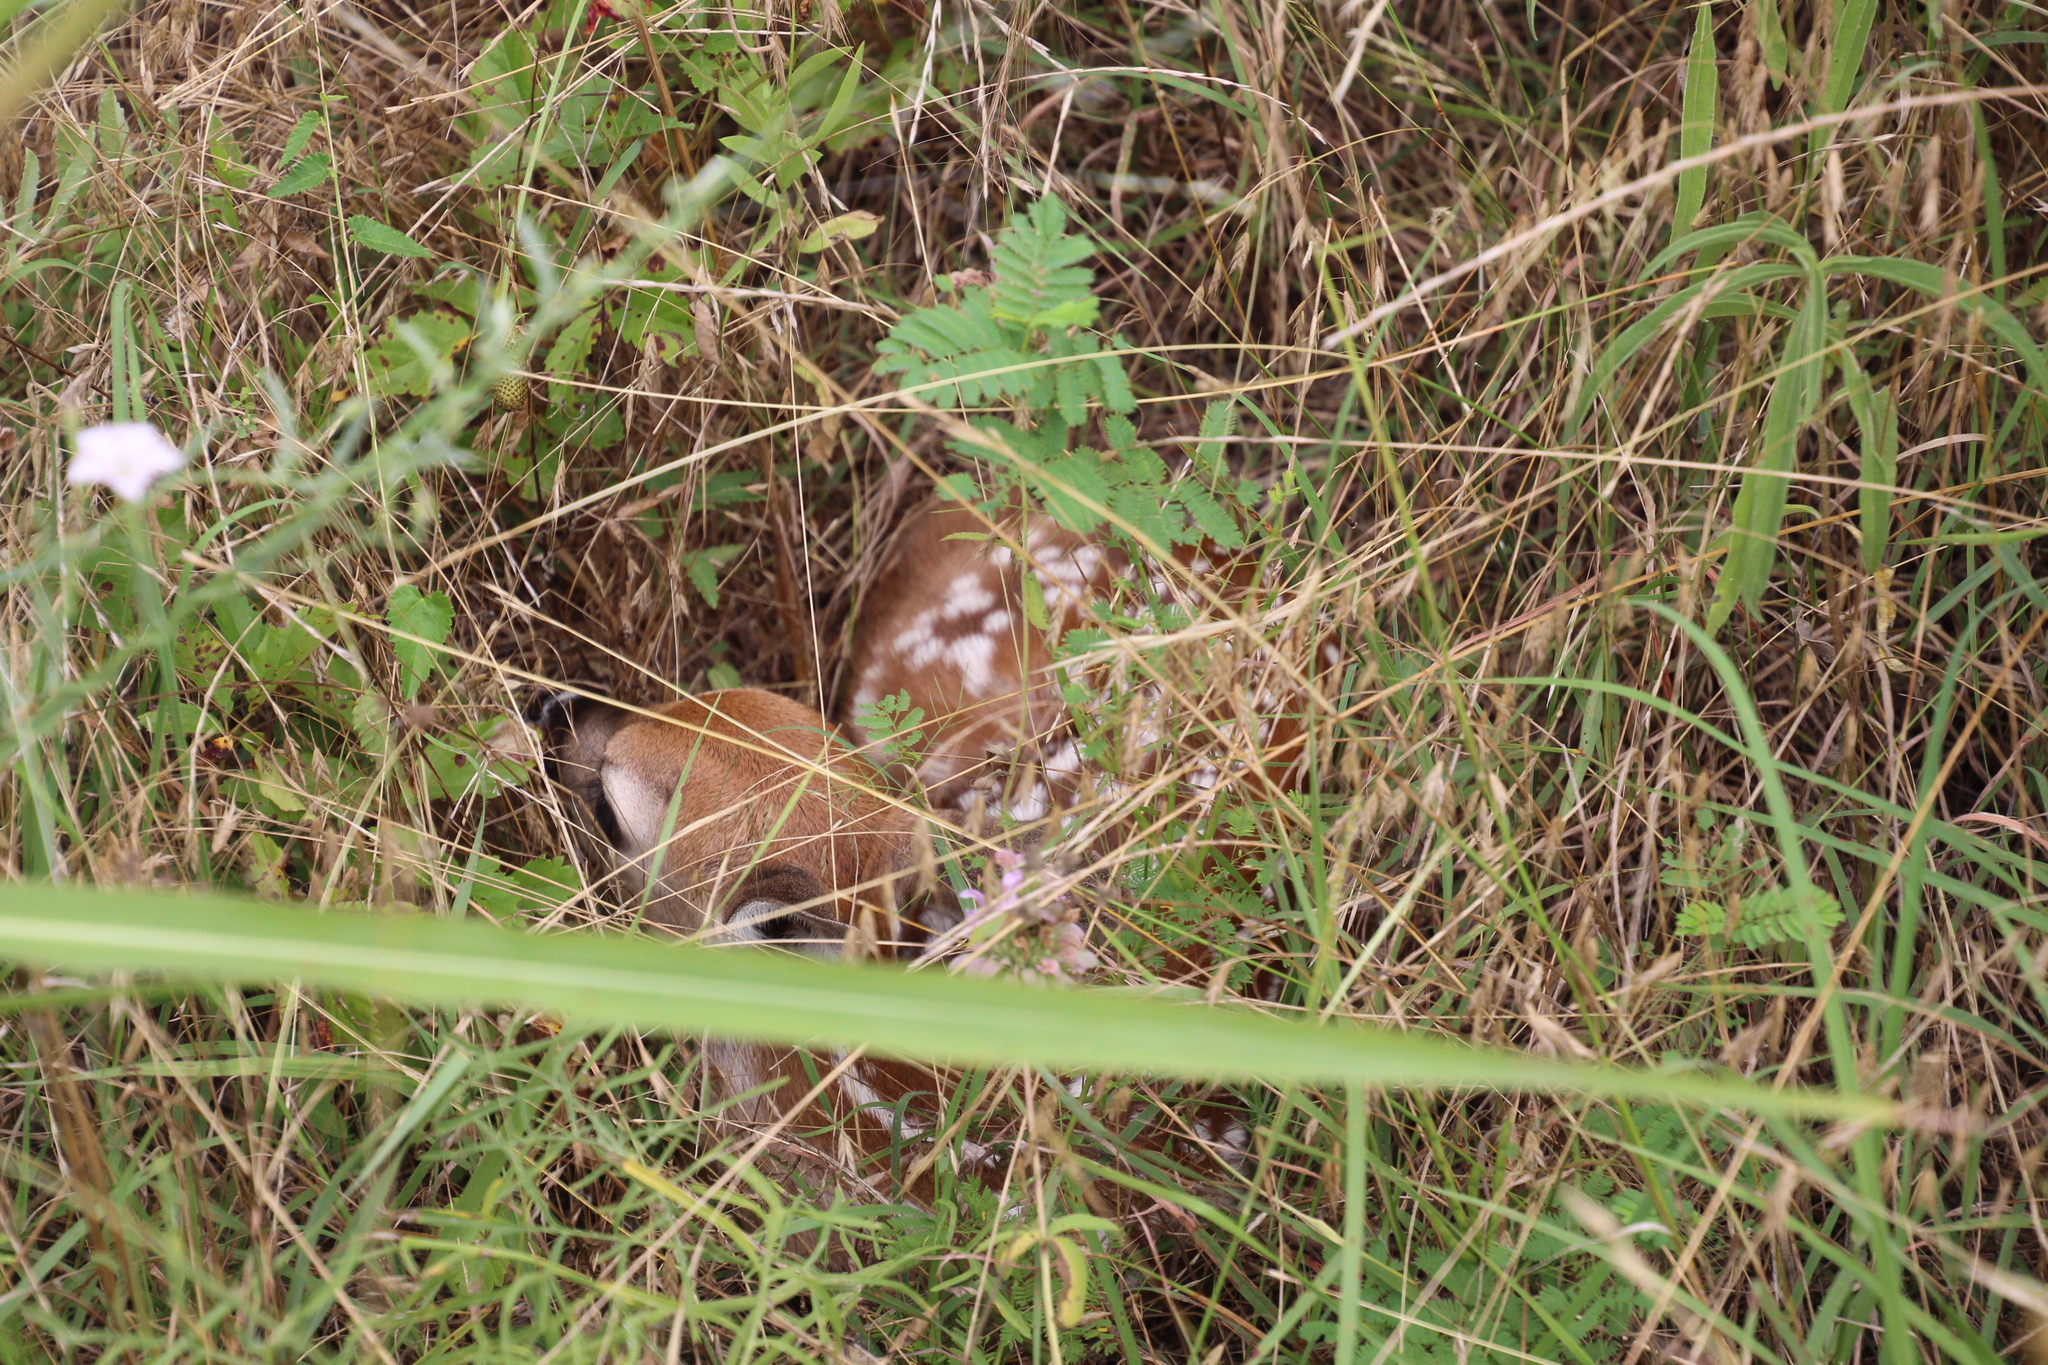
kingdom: Animalia
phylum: Chordata
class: Mammalia
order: Artiodactyla
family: Cervidae
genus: Odocoileus
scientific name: Odocoileus virginianus
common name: White-tailed deer
